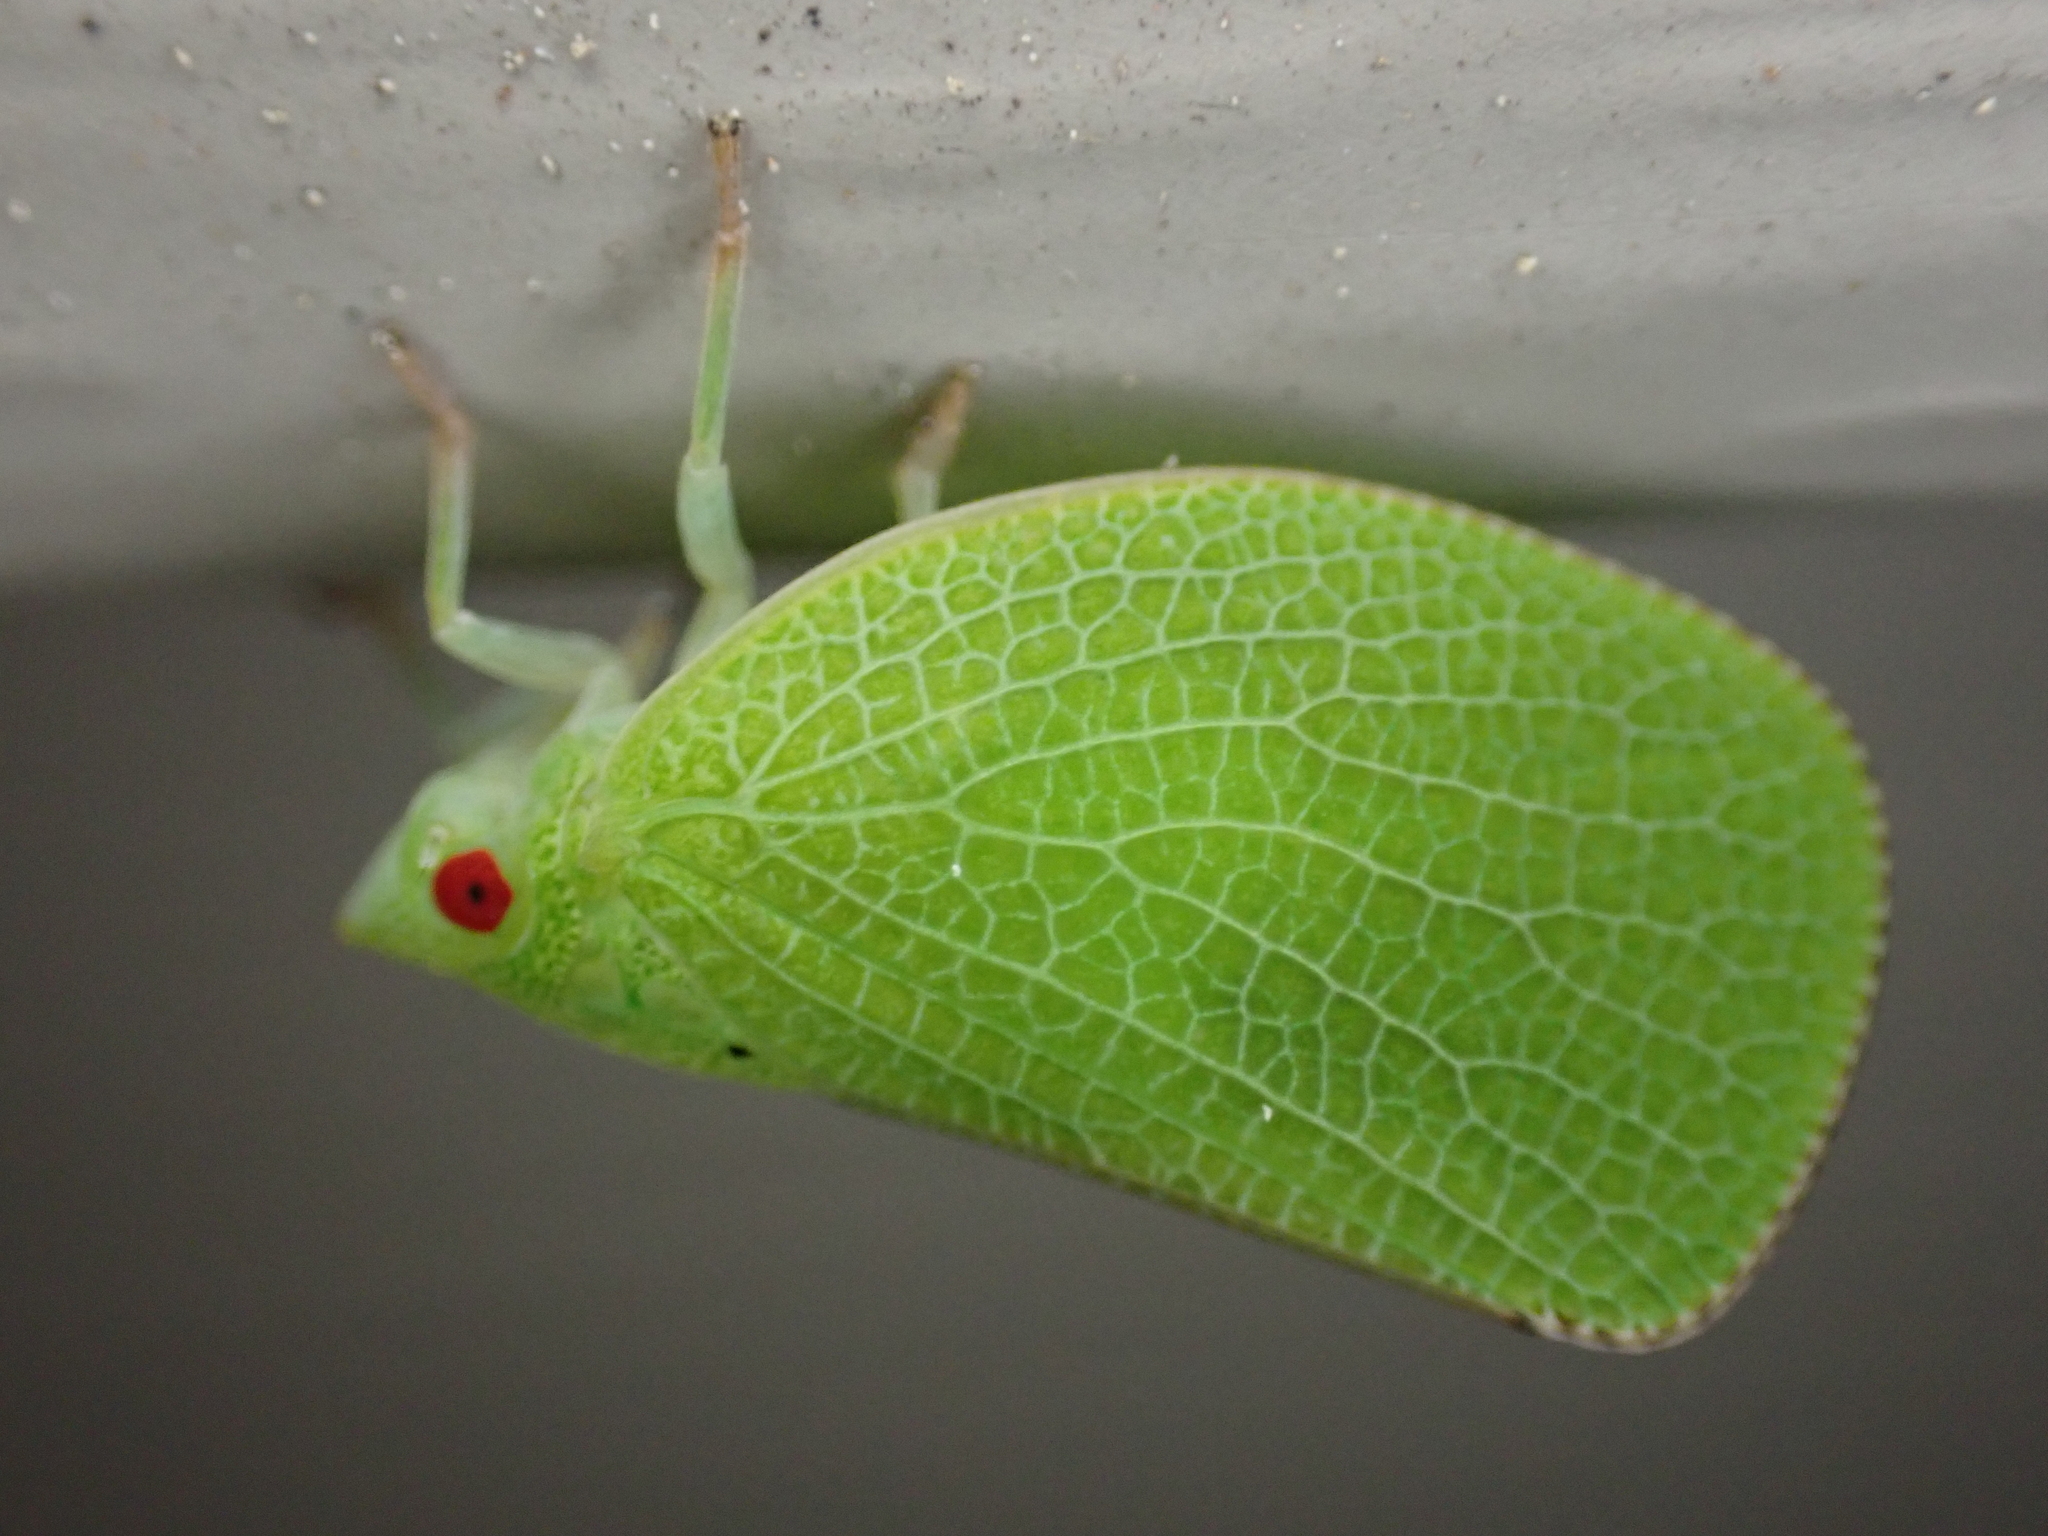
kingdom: Animalia
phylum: Arthropoda
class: Insecta
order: Hemiptera
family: Acanaloniidae
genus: Acanalonia
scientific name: Acanalonia conica
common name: Green cone-headed planthopper
